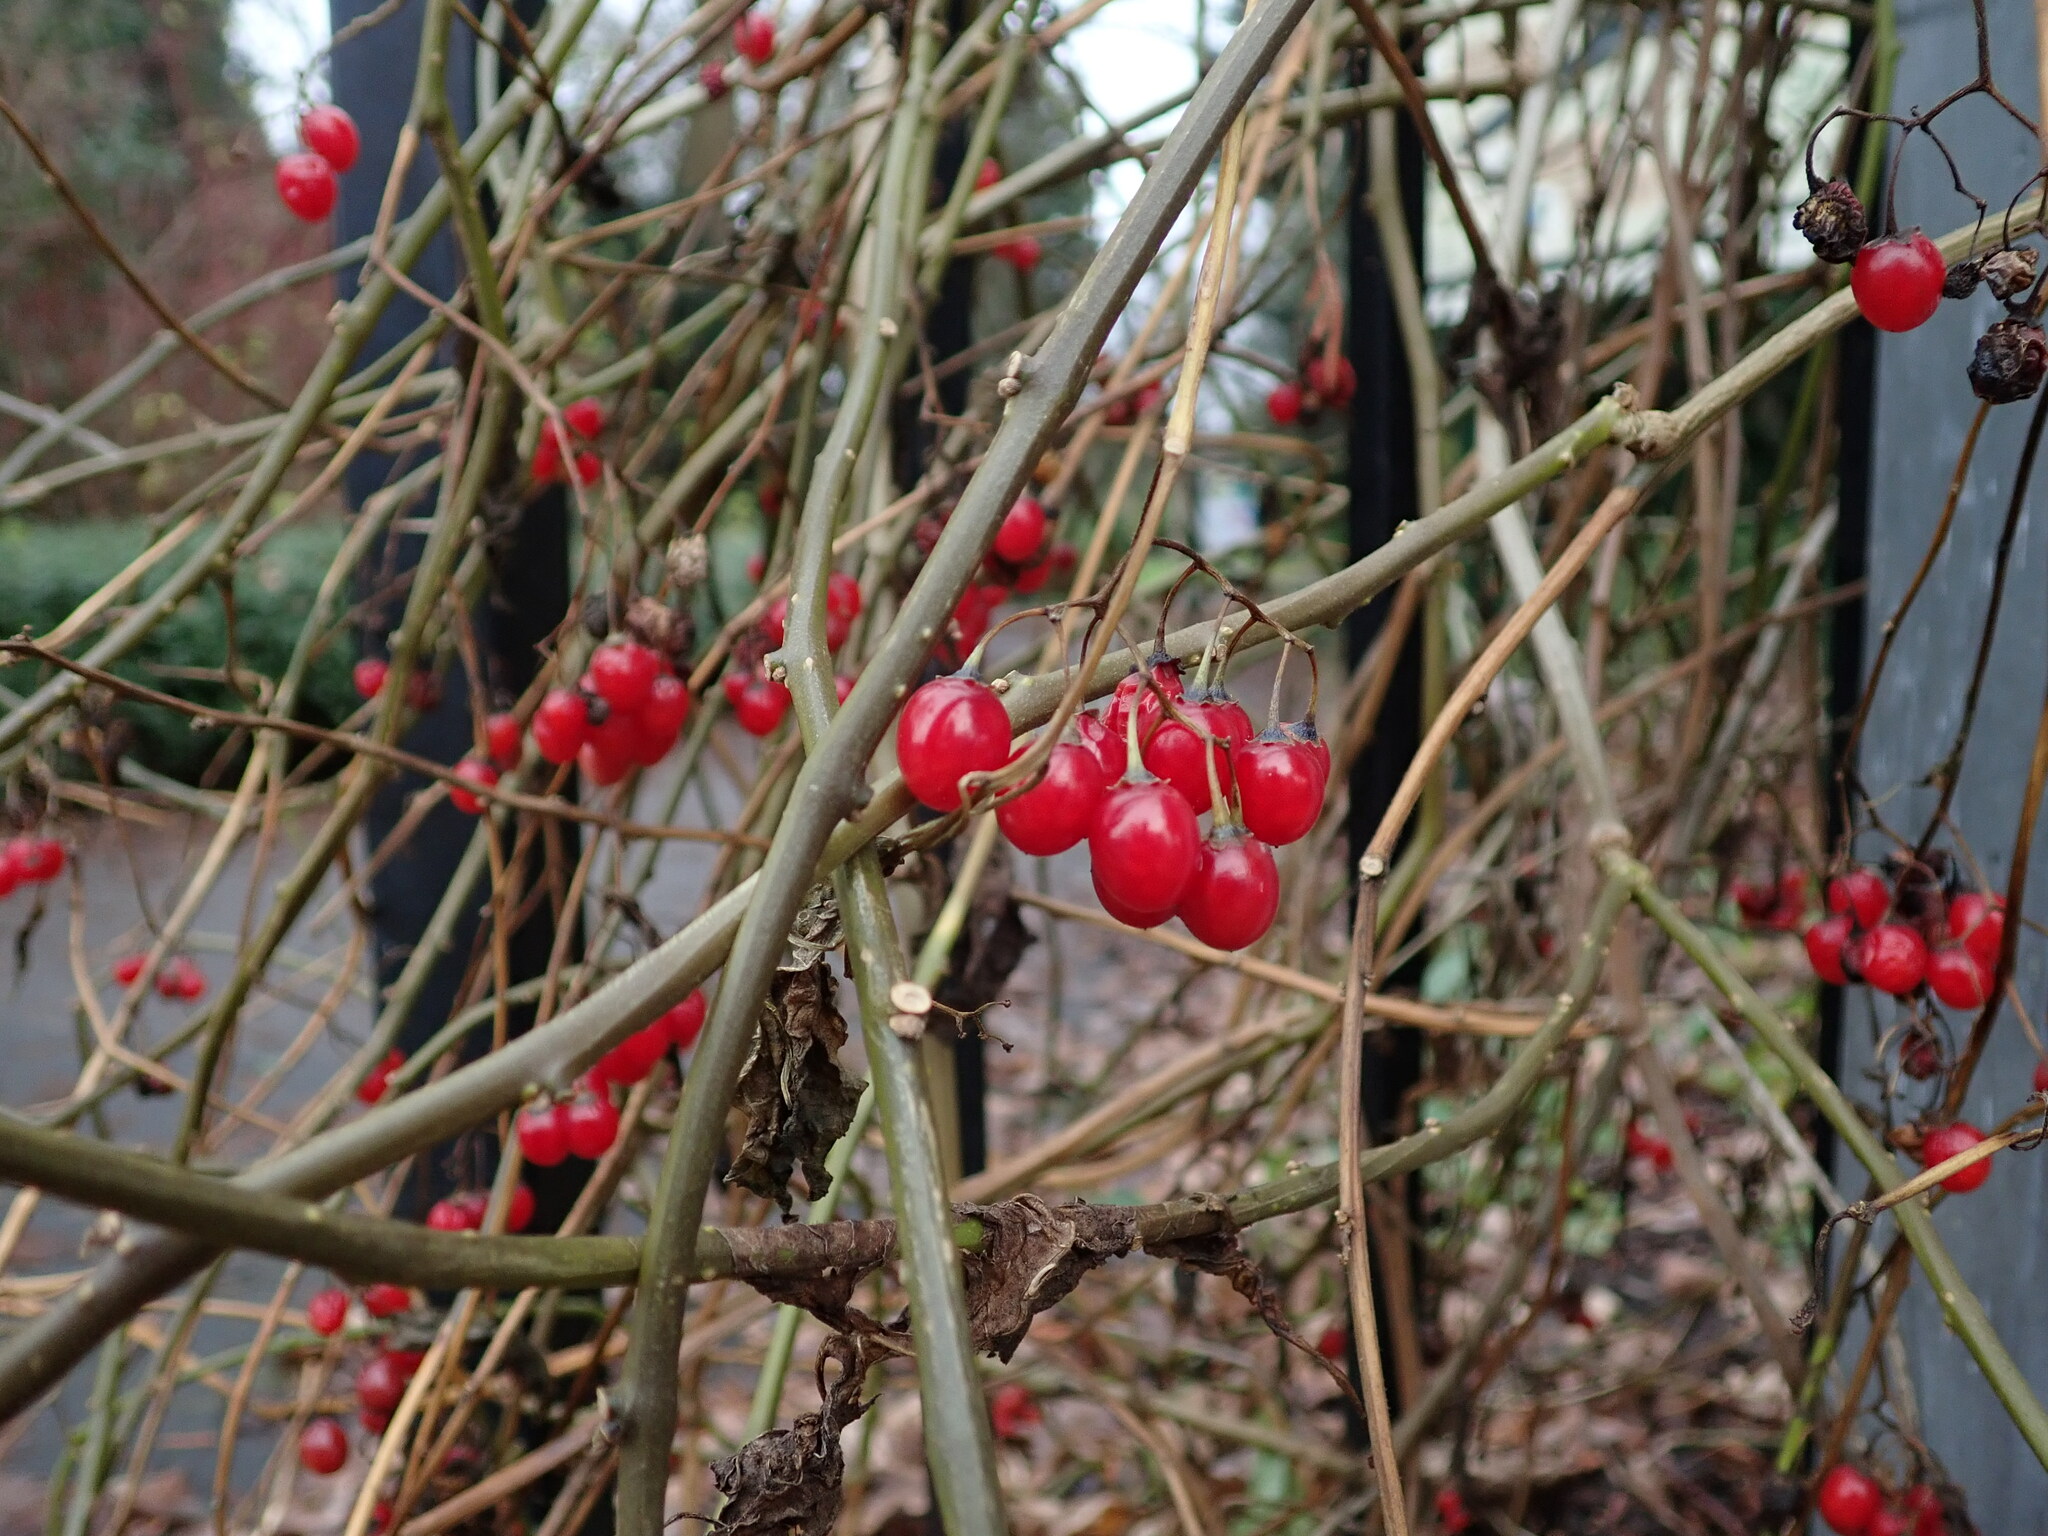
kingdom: Plantae
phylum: Tracheophyta
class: Magnoliopsida
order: Solanales
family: Solanaceae
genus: Solanum
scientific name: Solanum dulcamara
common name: Climbing nightshade
